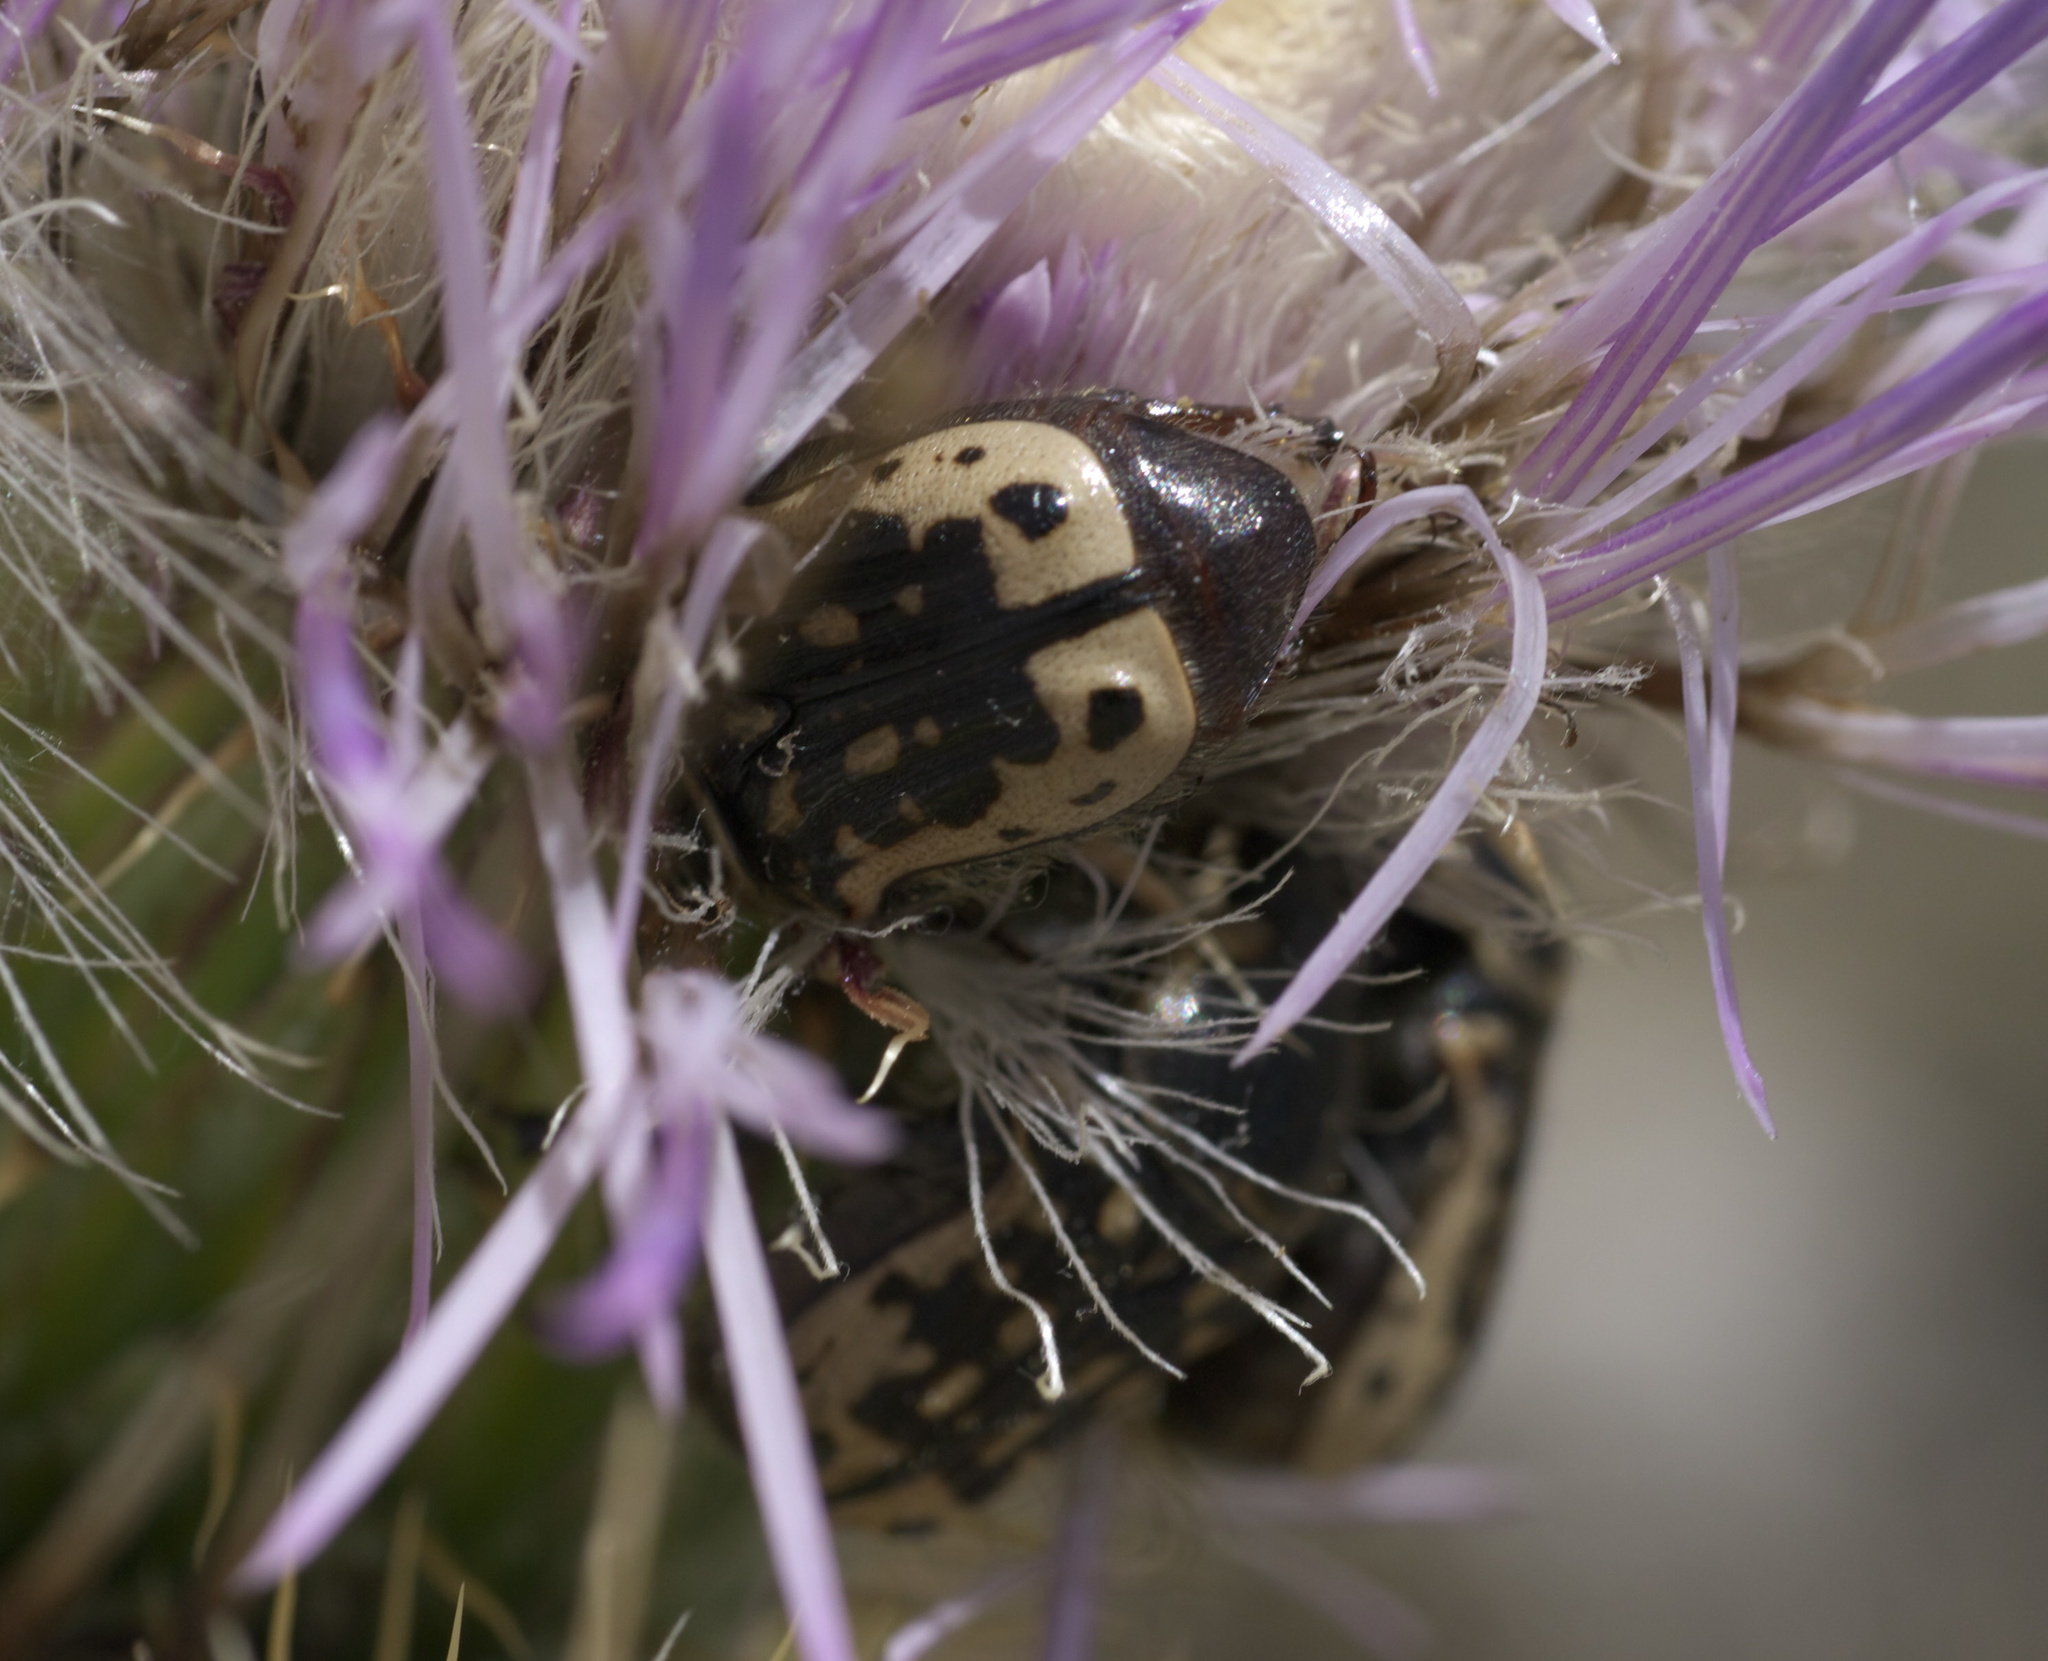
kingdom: Animalia
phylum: Arthropoda
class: Insecta
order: Coleoptera
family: Scarabaeidae
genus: Euphoria
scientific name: Euphoria kernii
